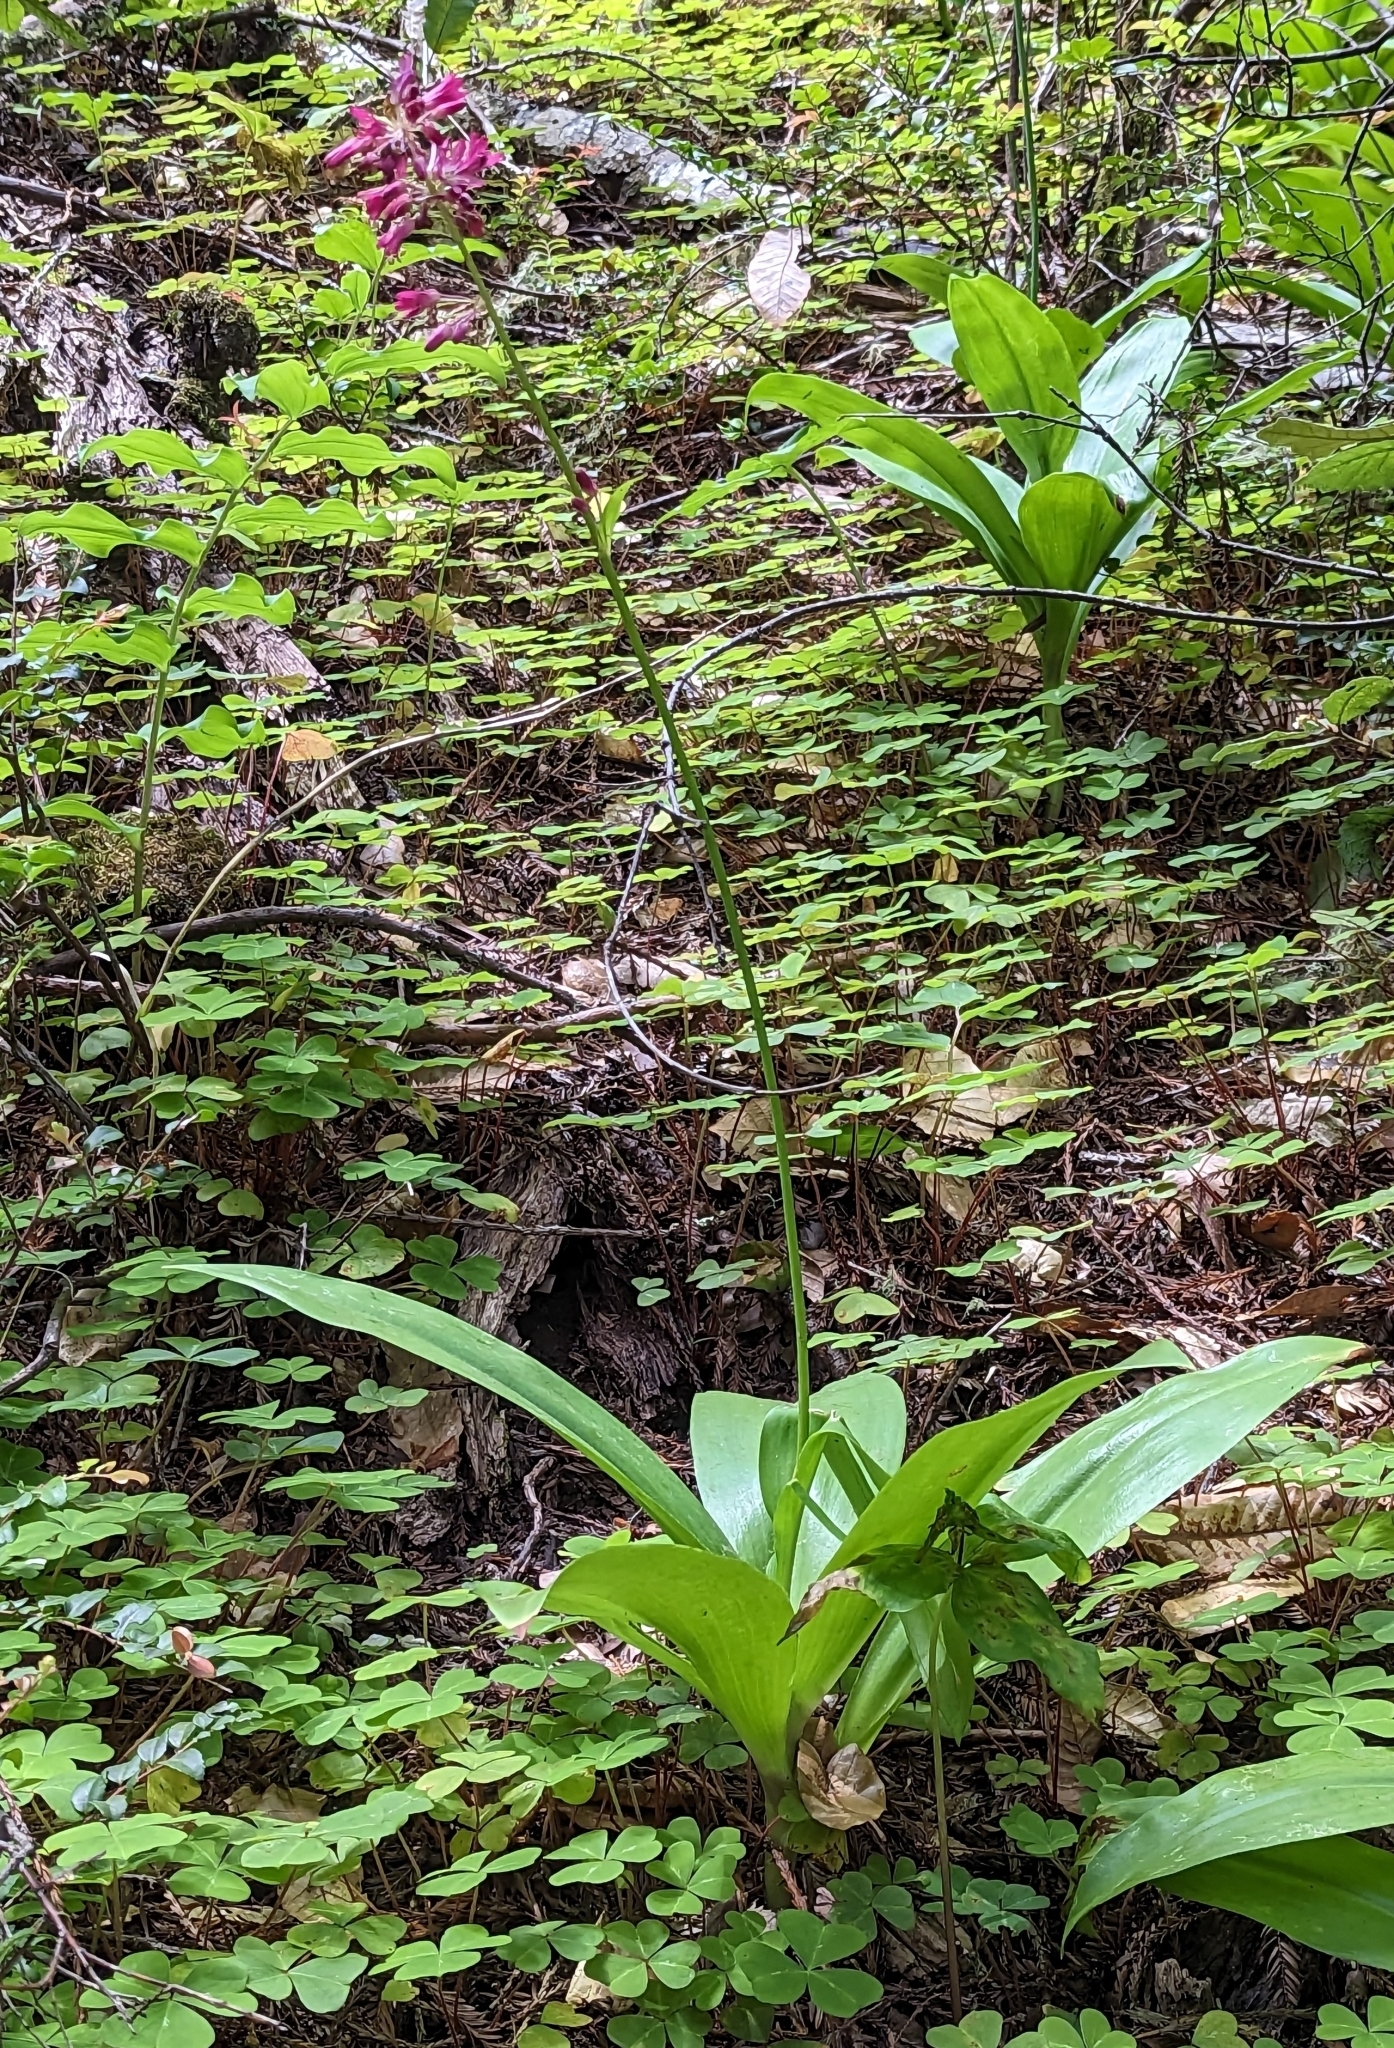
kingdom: Plantae
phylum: Tracheophyta
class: Liliopsida
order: Liliales
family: Liliaceae
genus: Clintonia
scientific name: Clintonia andrewsiana
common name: Red clintonia
